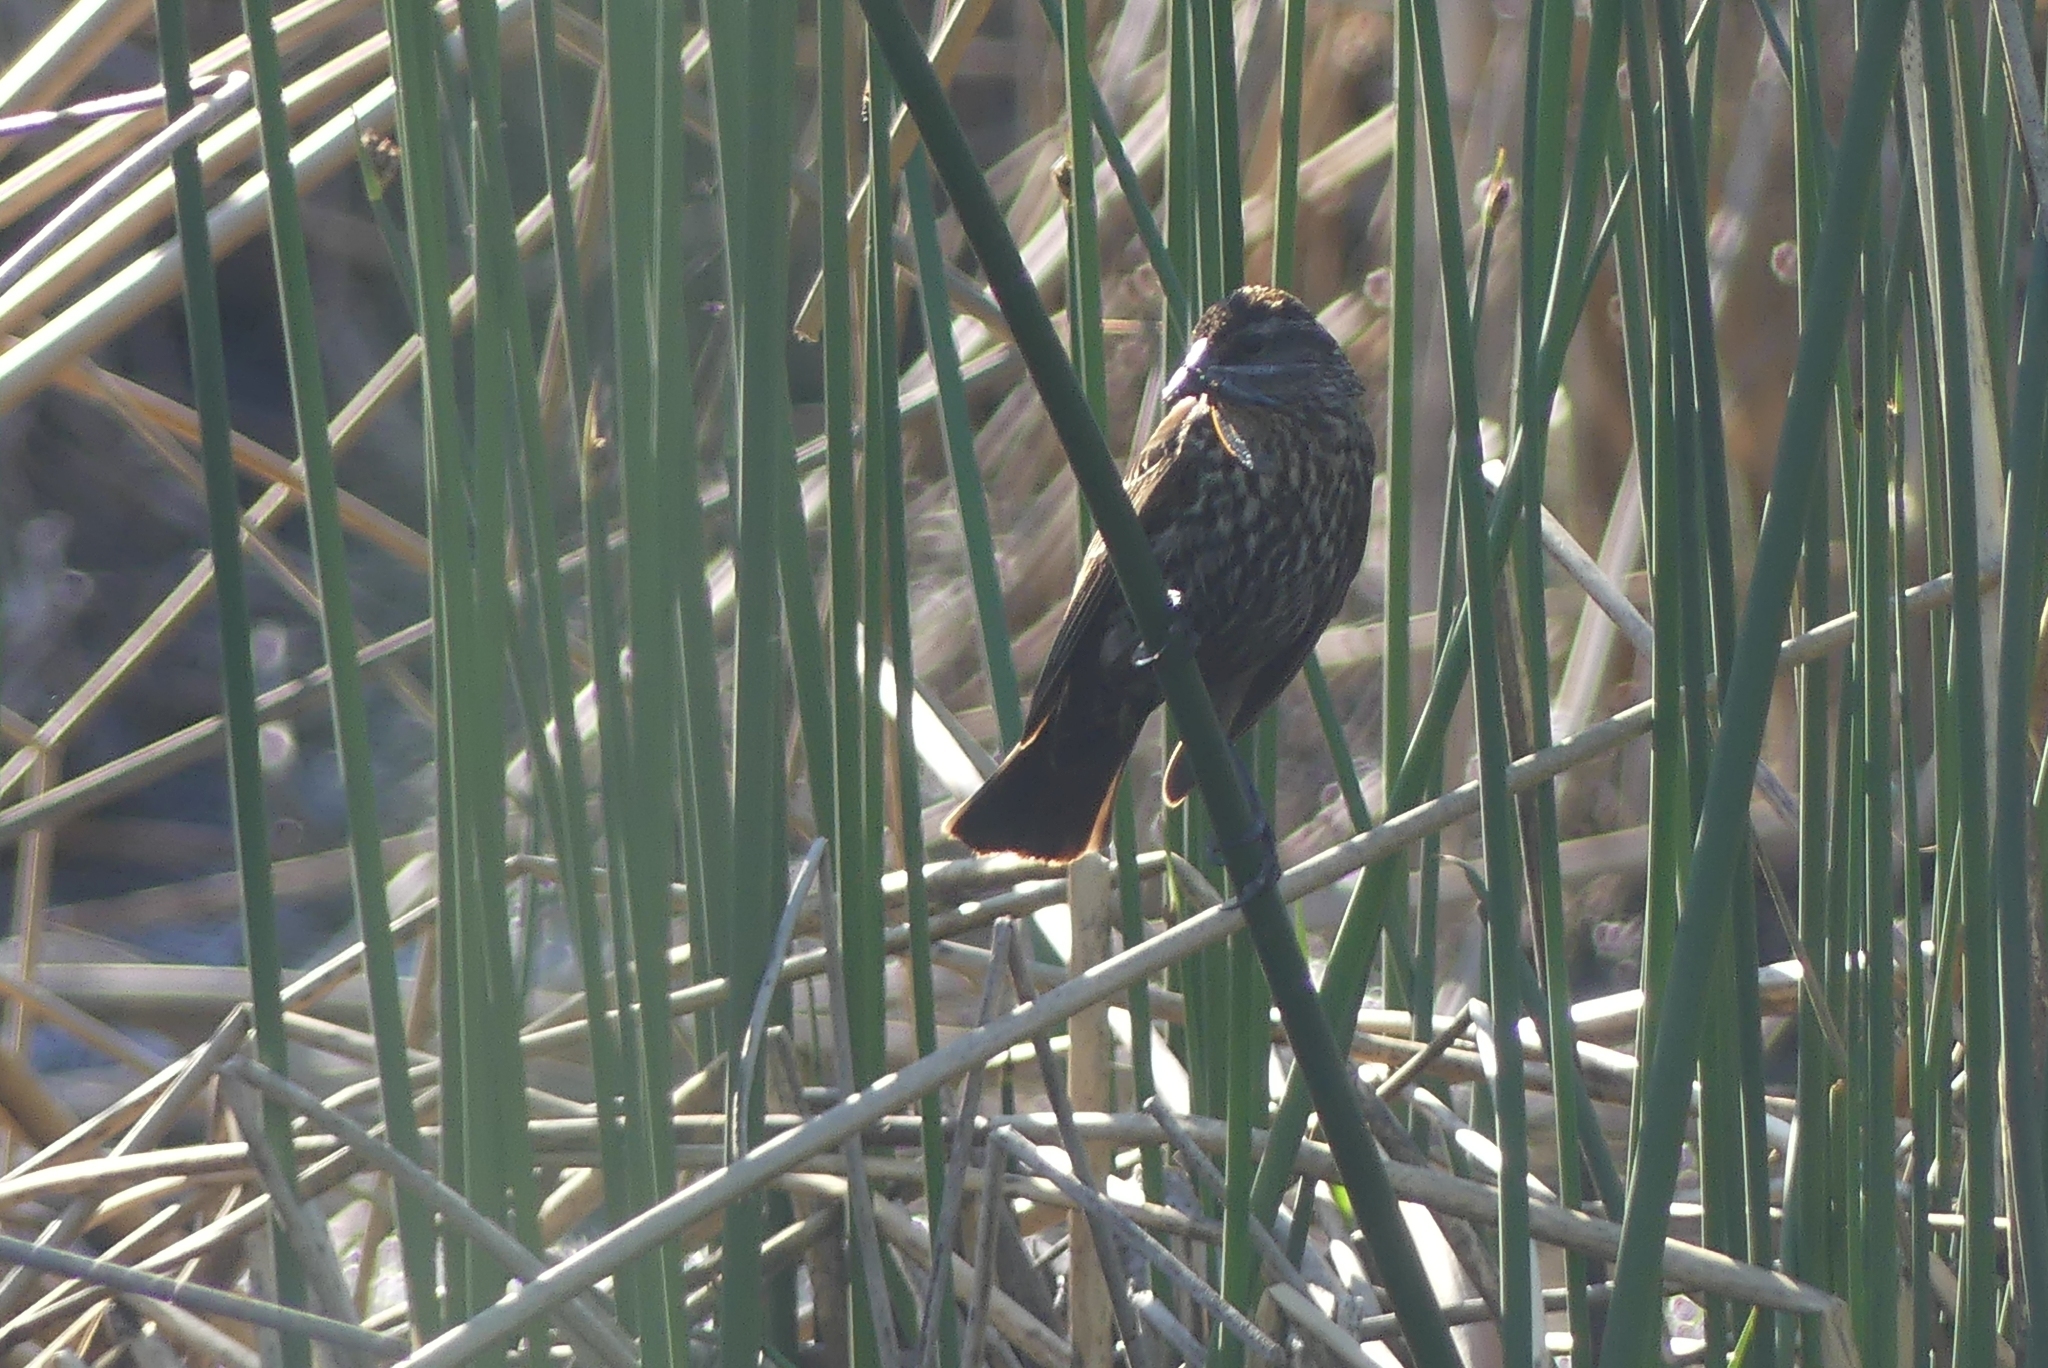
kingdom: Animalia
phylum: Chordata
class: Aves
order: Passeriformes
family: Icteridae
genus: Agelaius
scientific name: Agelaius phoeniceus
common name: Red-winged blackbird
